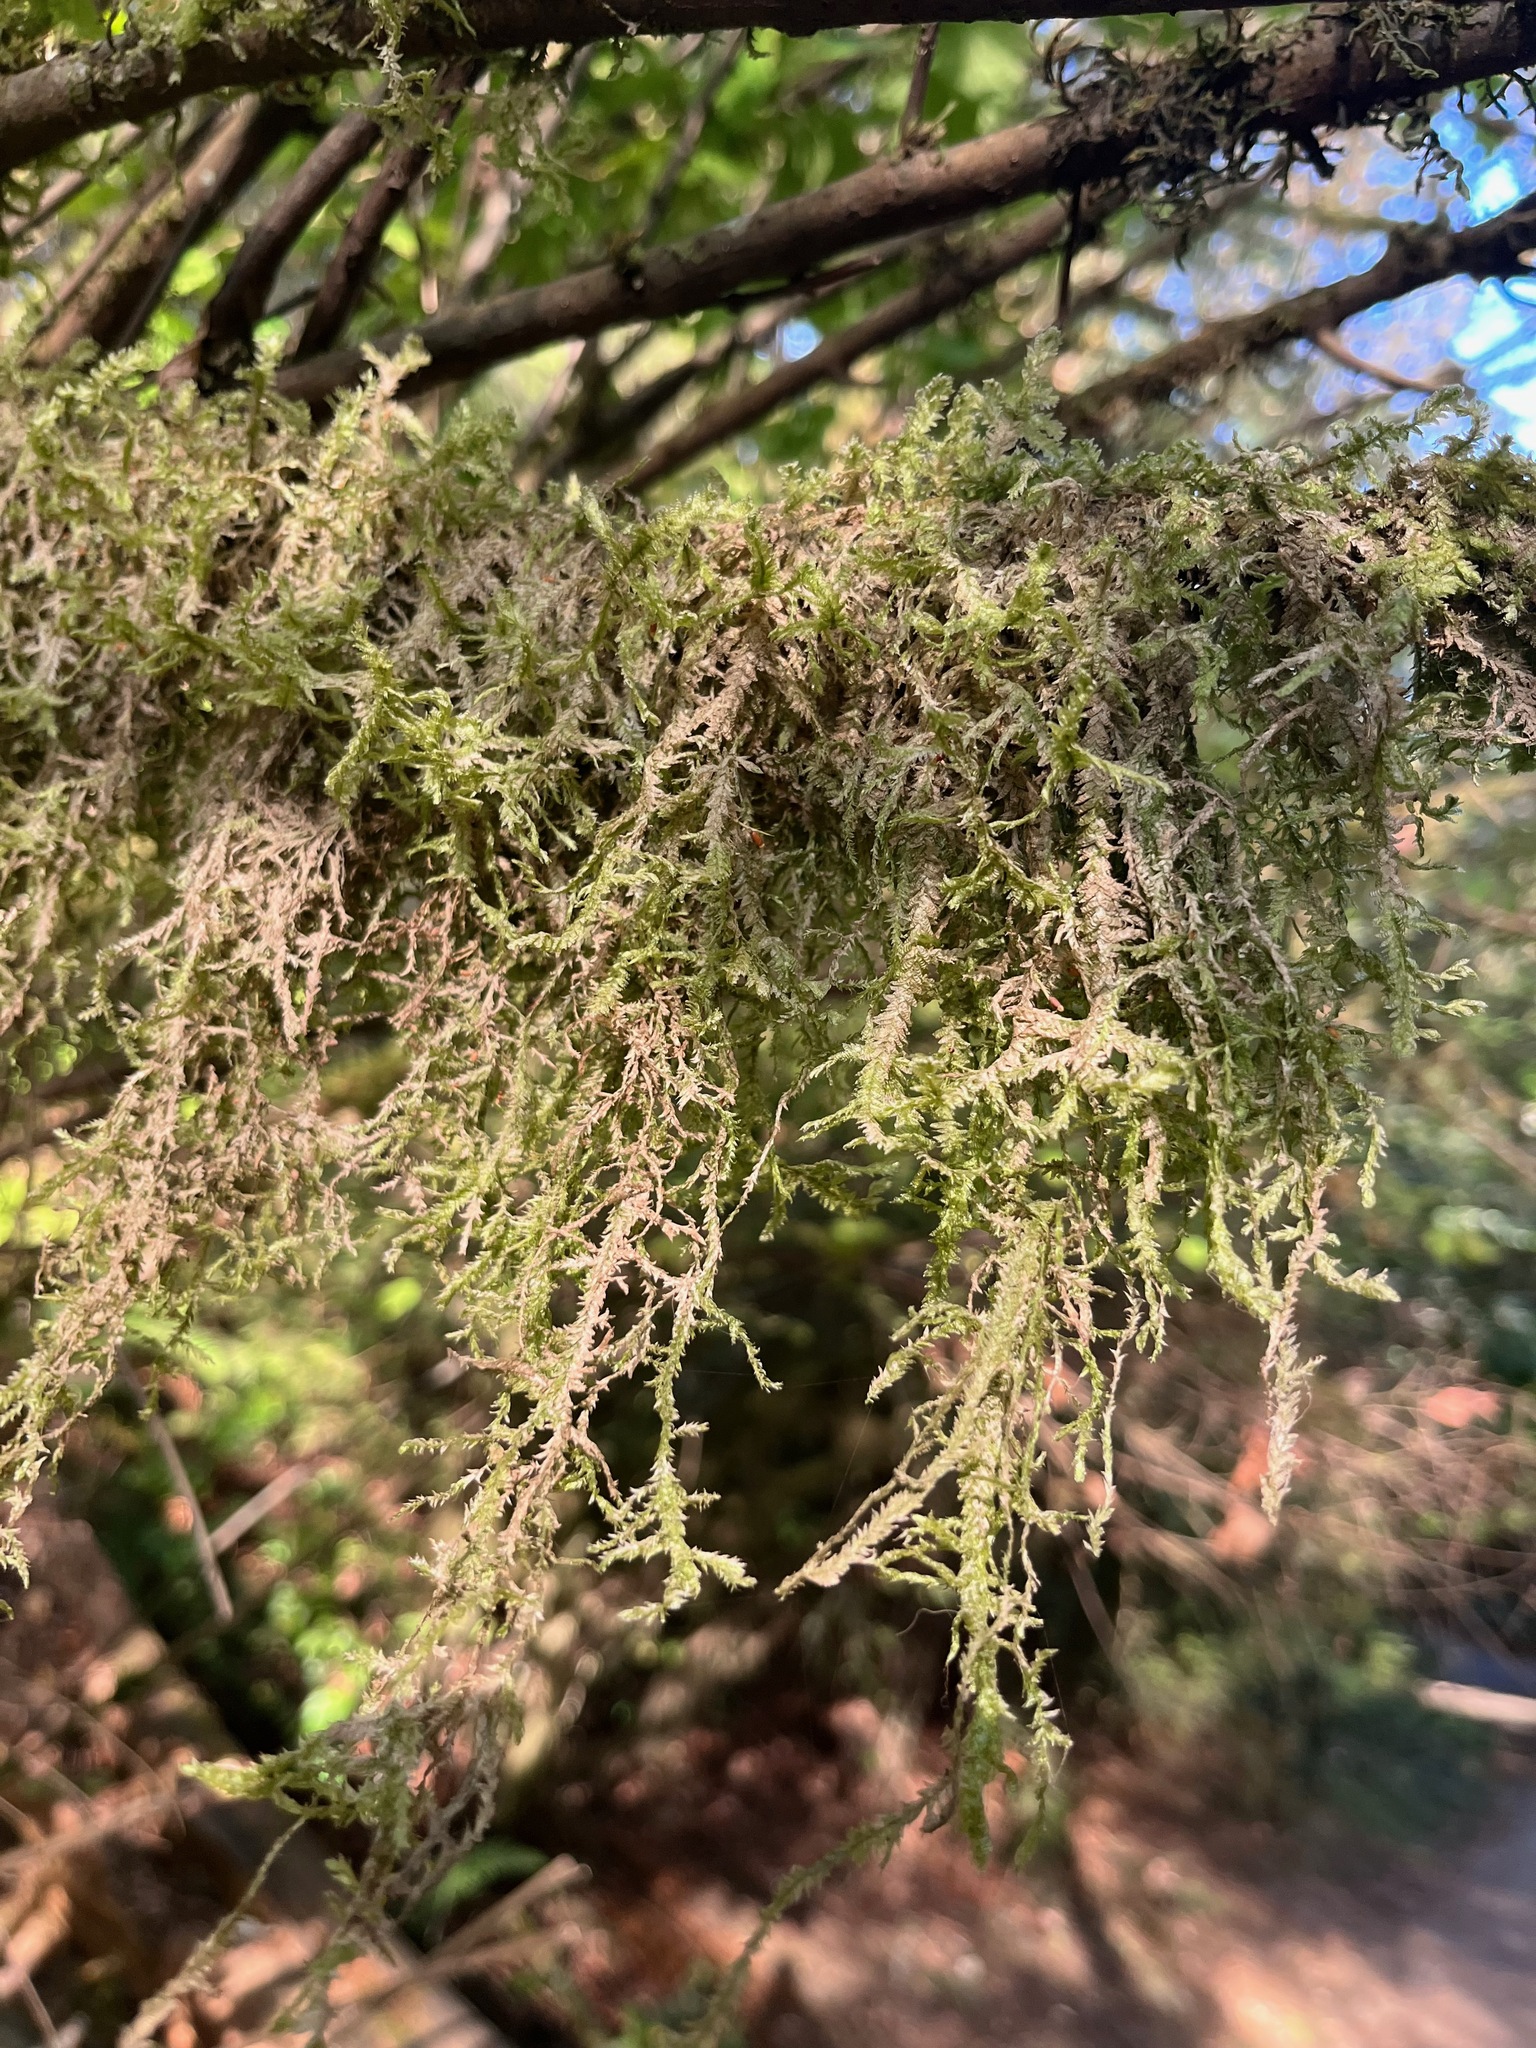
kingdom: Plantae
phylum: Bryophyta
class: Bryopsida
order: Hypnales
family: Neckeraceae
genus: Neckera
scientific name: Neckera douglasii
